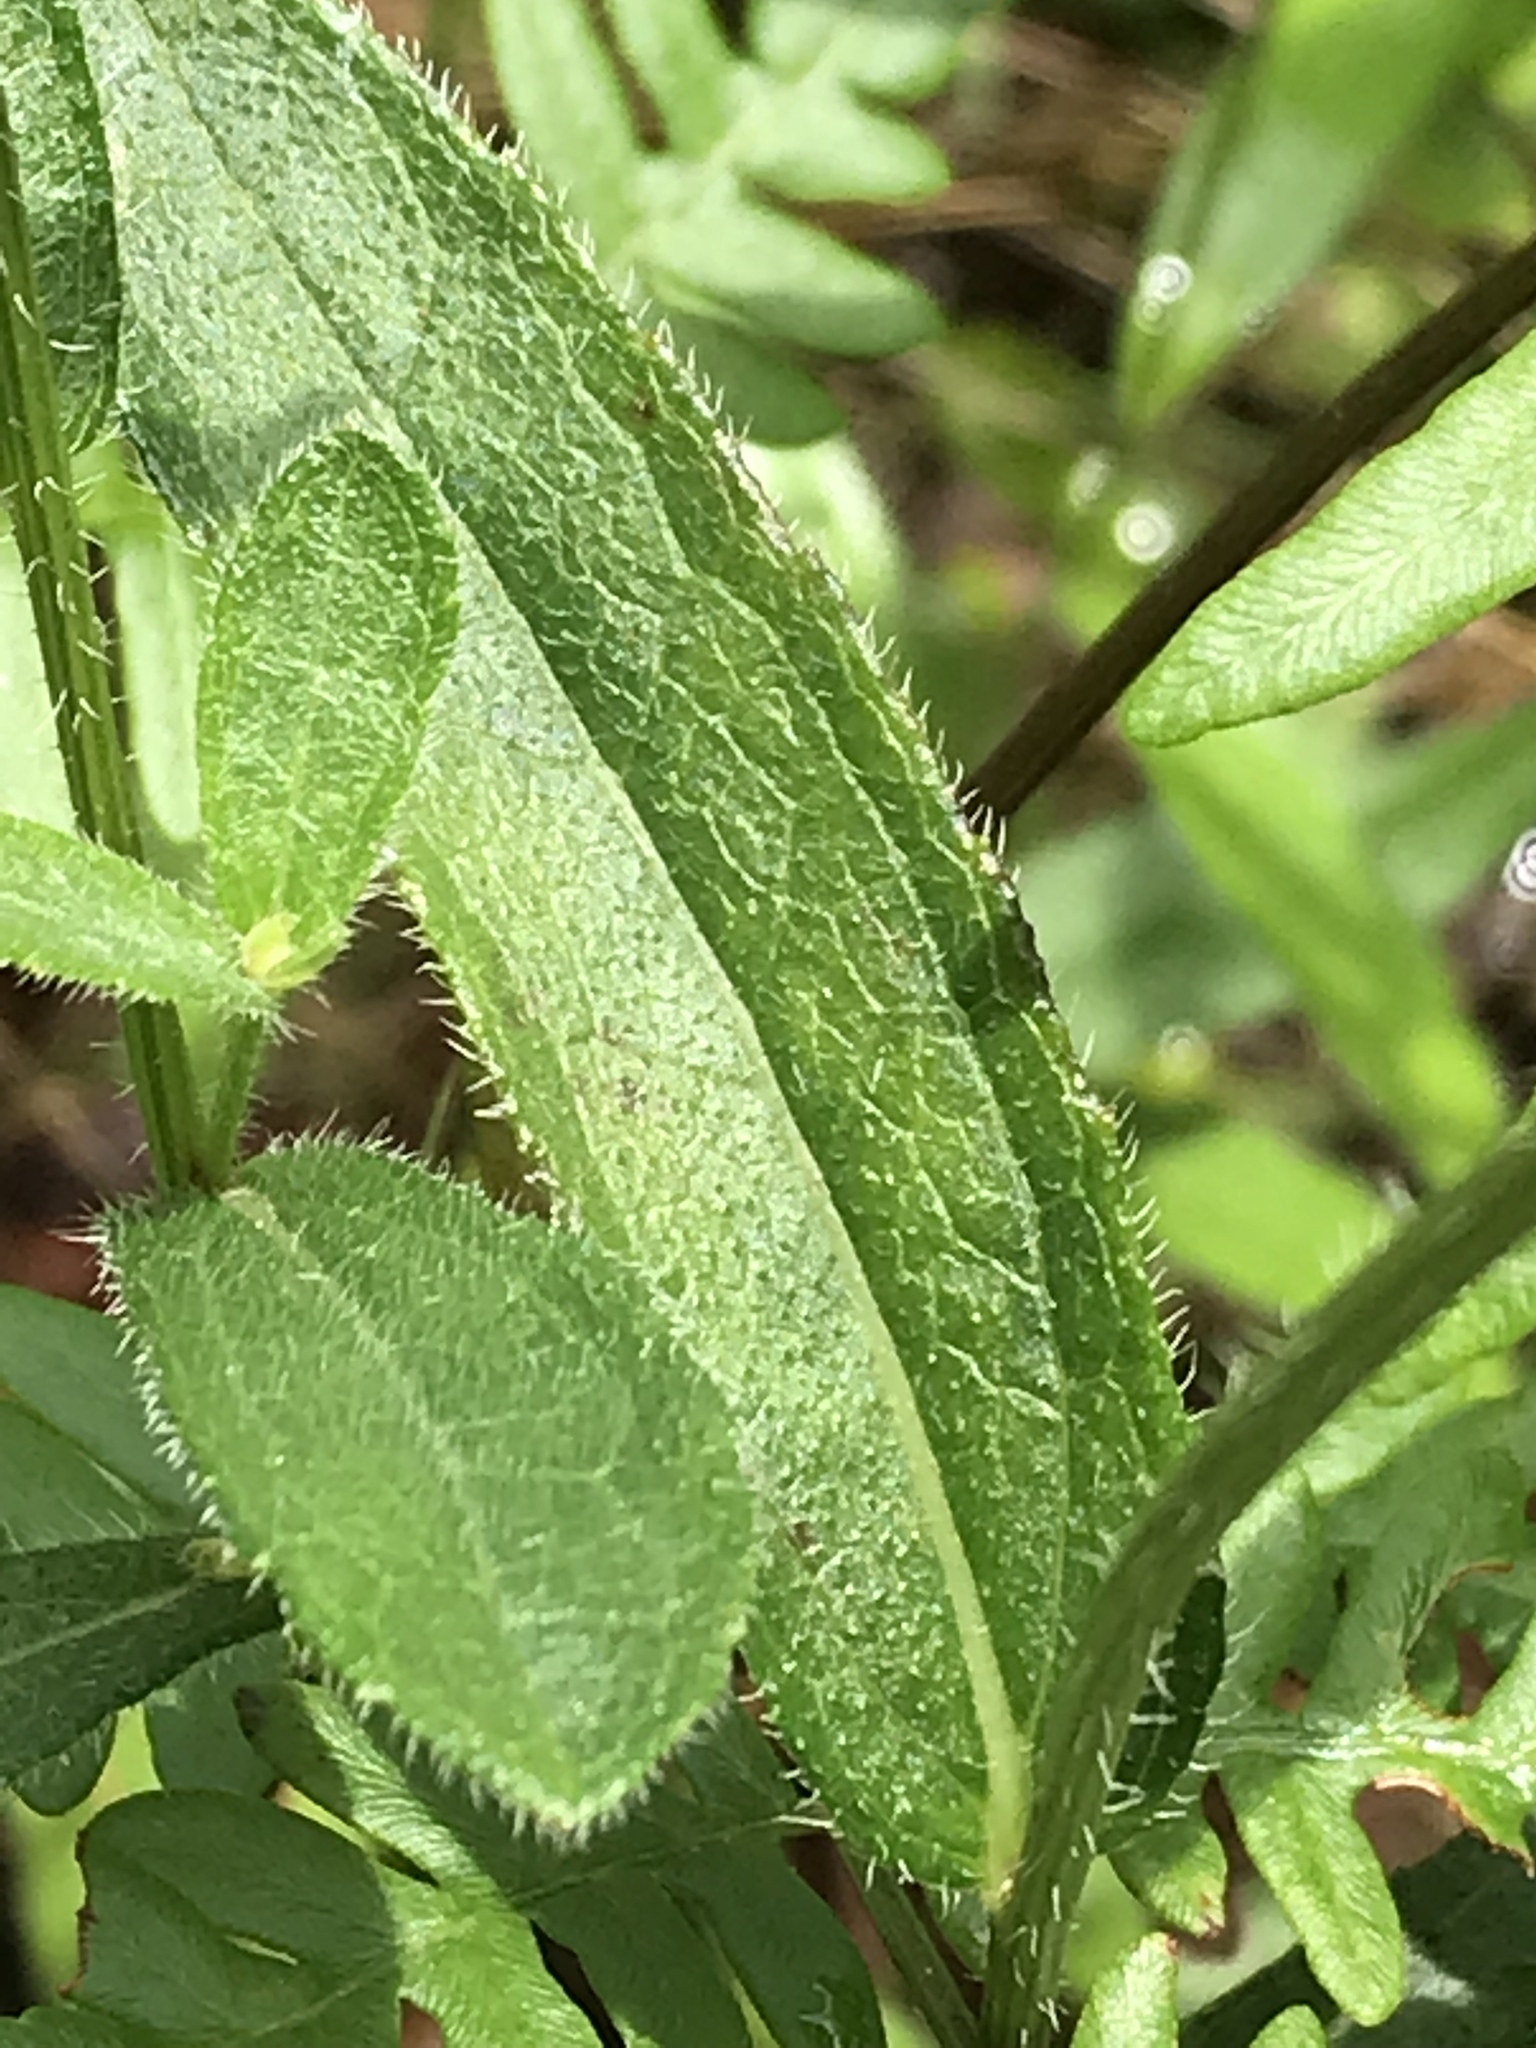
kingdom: Plantae
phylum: Tracheophyta
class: Magnoliopsida
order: Asterales
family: Asteraceae
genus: Rudbeckia
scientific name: Rudbeckia hirta
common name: Black-eyed-susan
